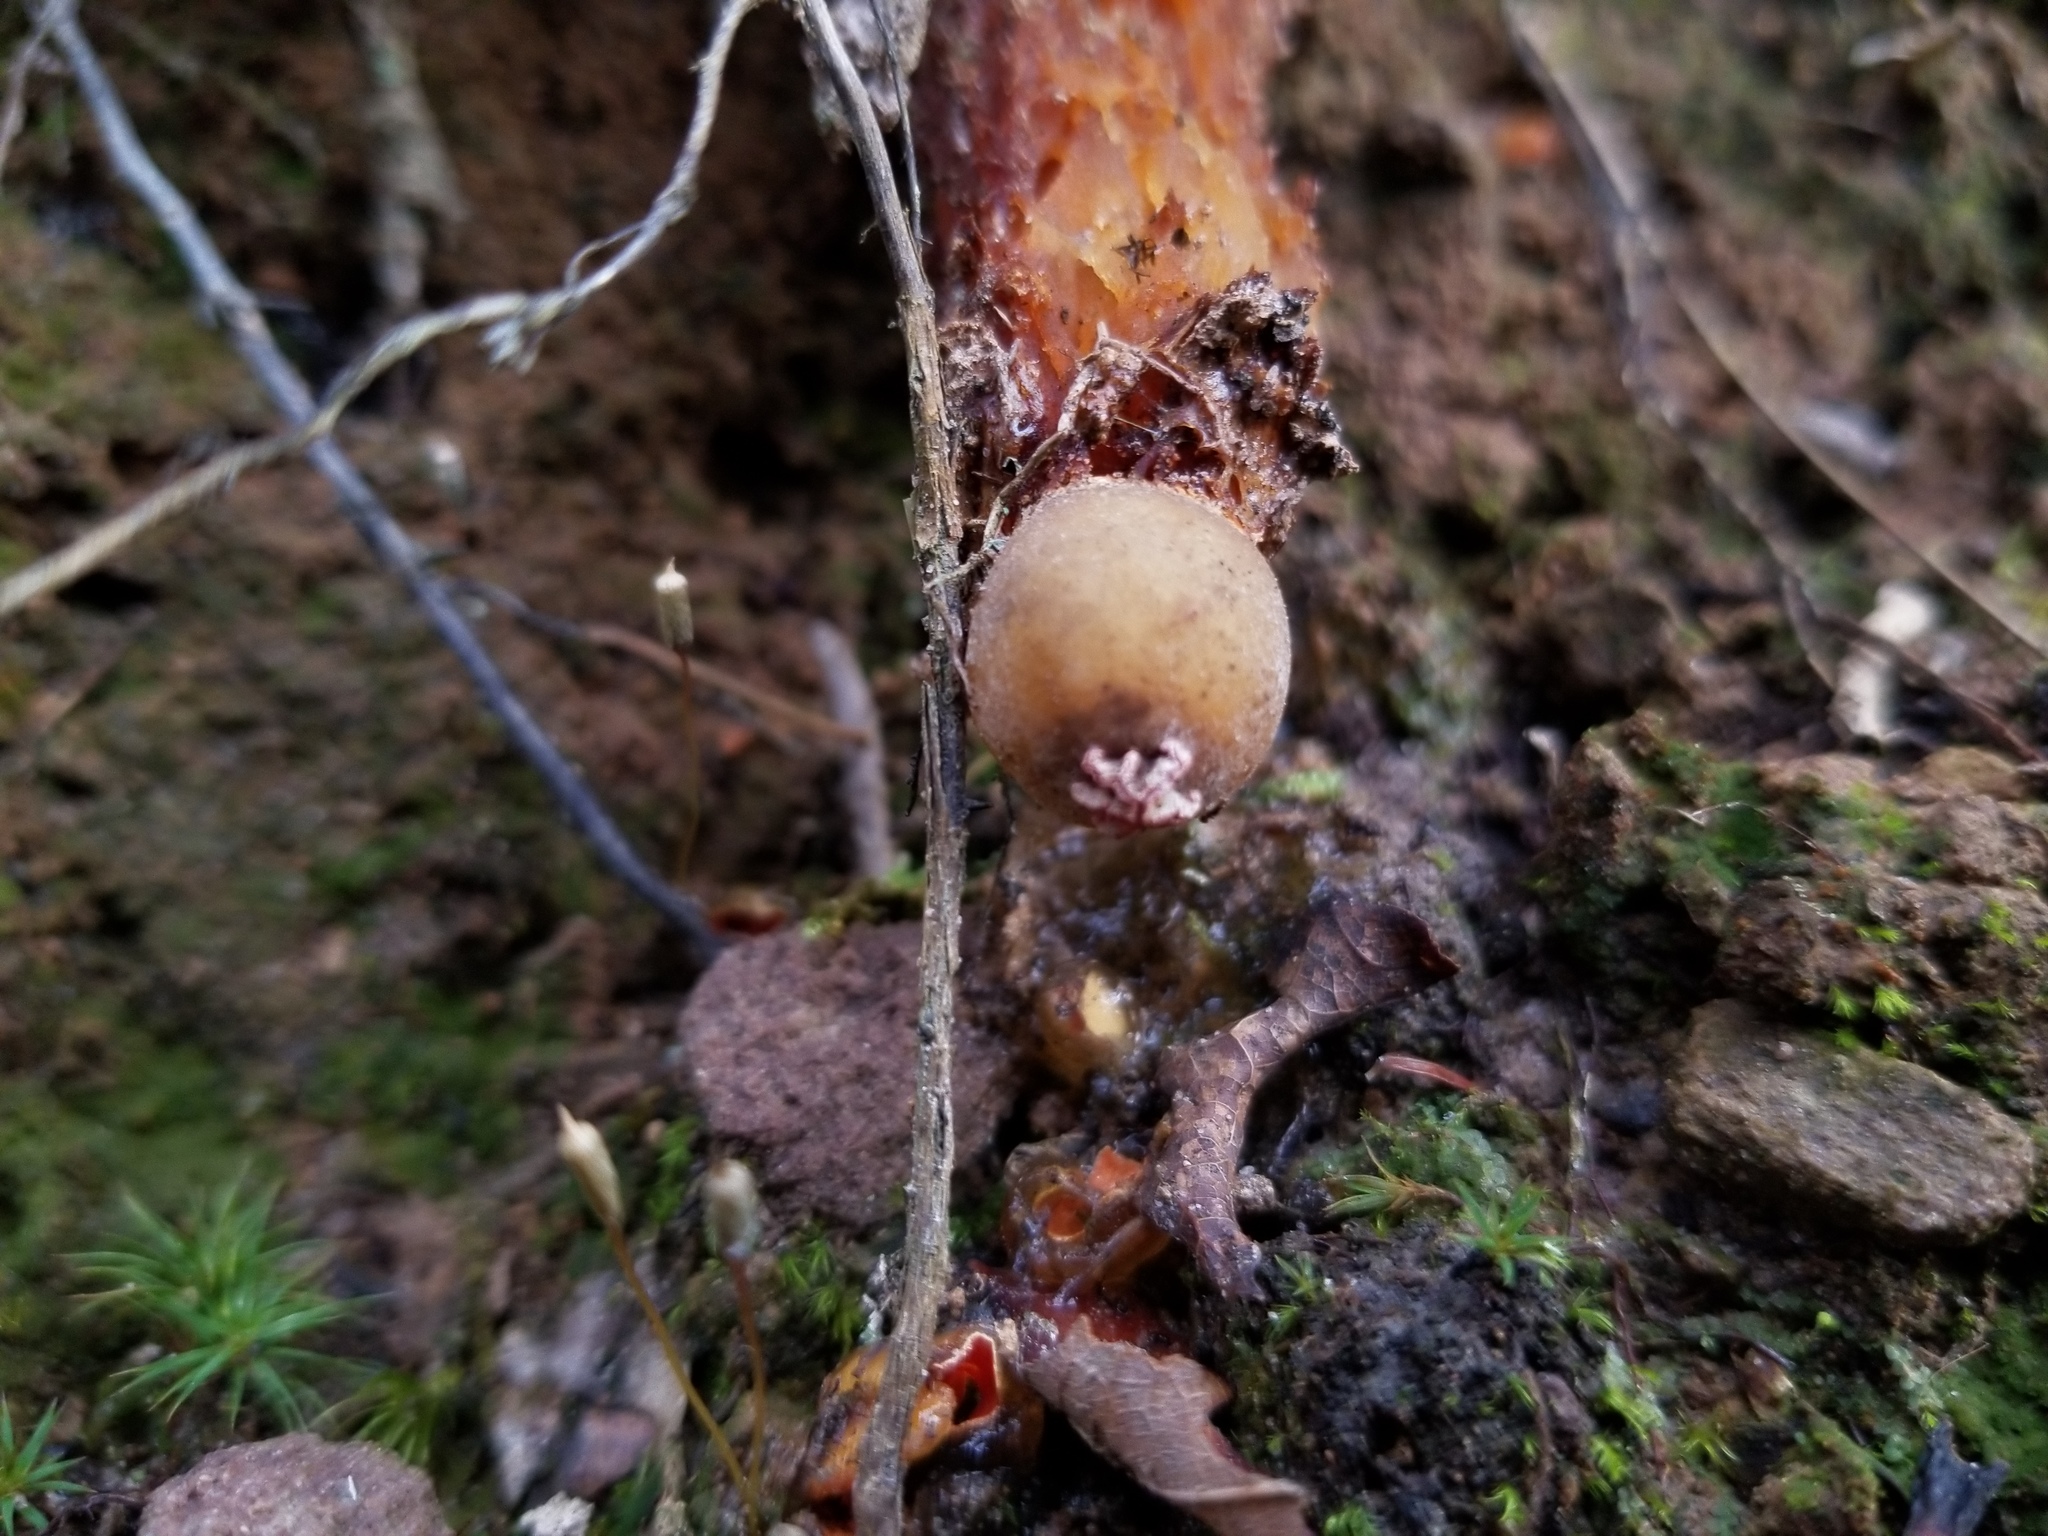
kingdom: Fungi
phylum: Basidiomycota
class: Agaricomycetes
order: Boletales
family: Calostomataceae
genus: Calostoma
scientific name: Calostoma cinnabarinum
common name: Stalked puffball-in-aspic
